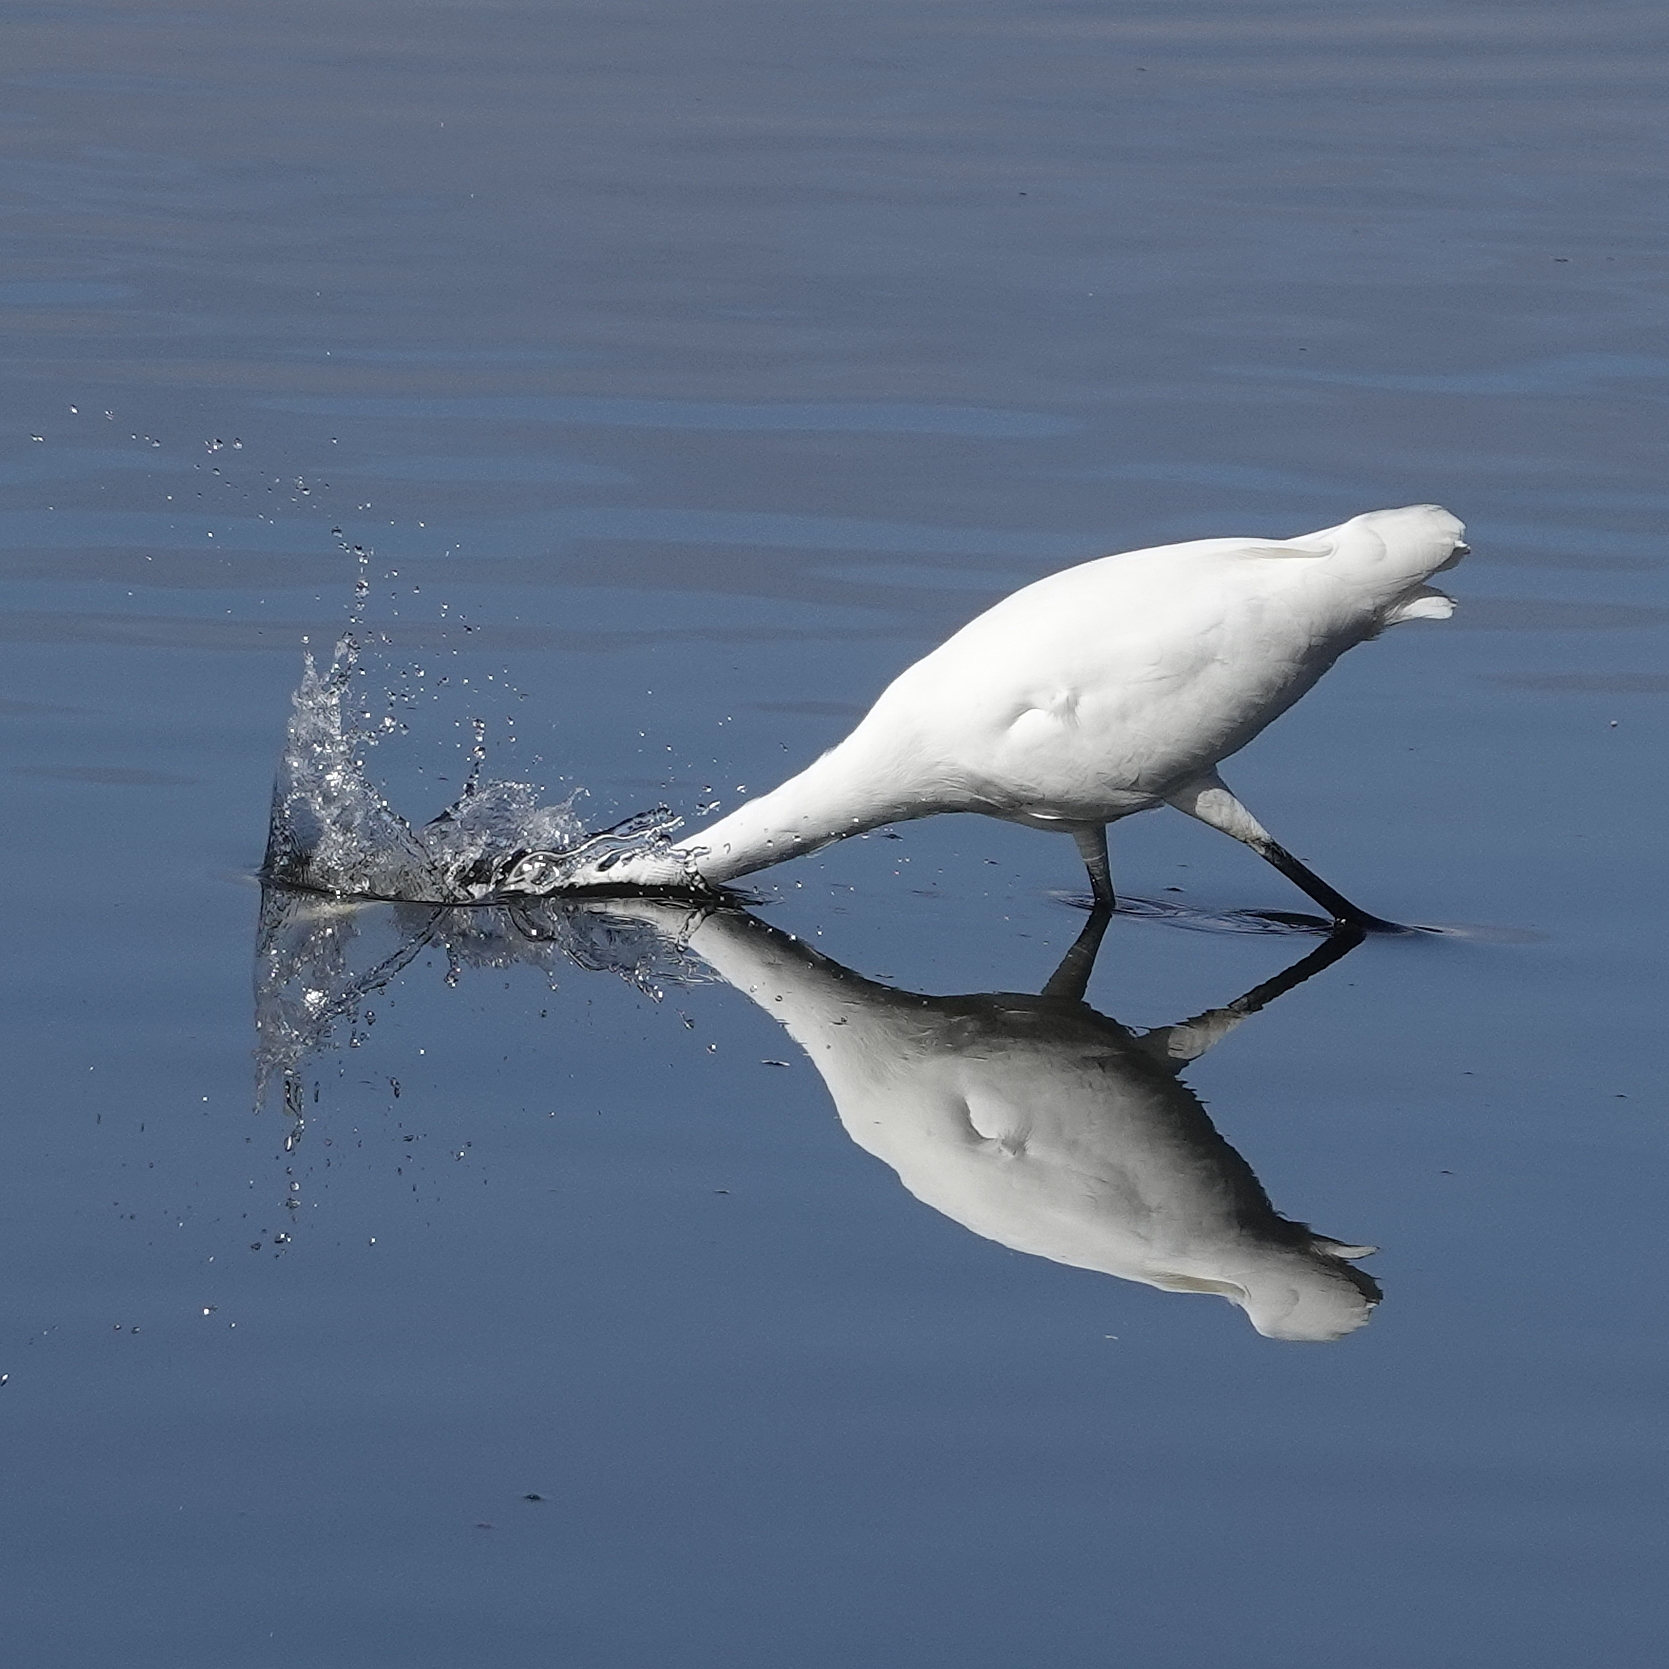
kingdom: Animalia
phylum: Chordata
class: Aves
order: Pelecaniformes
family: Ardeidae
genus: Ardea
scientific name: Ardea modesta
